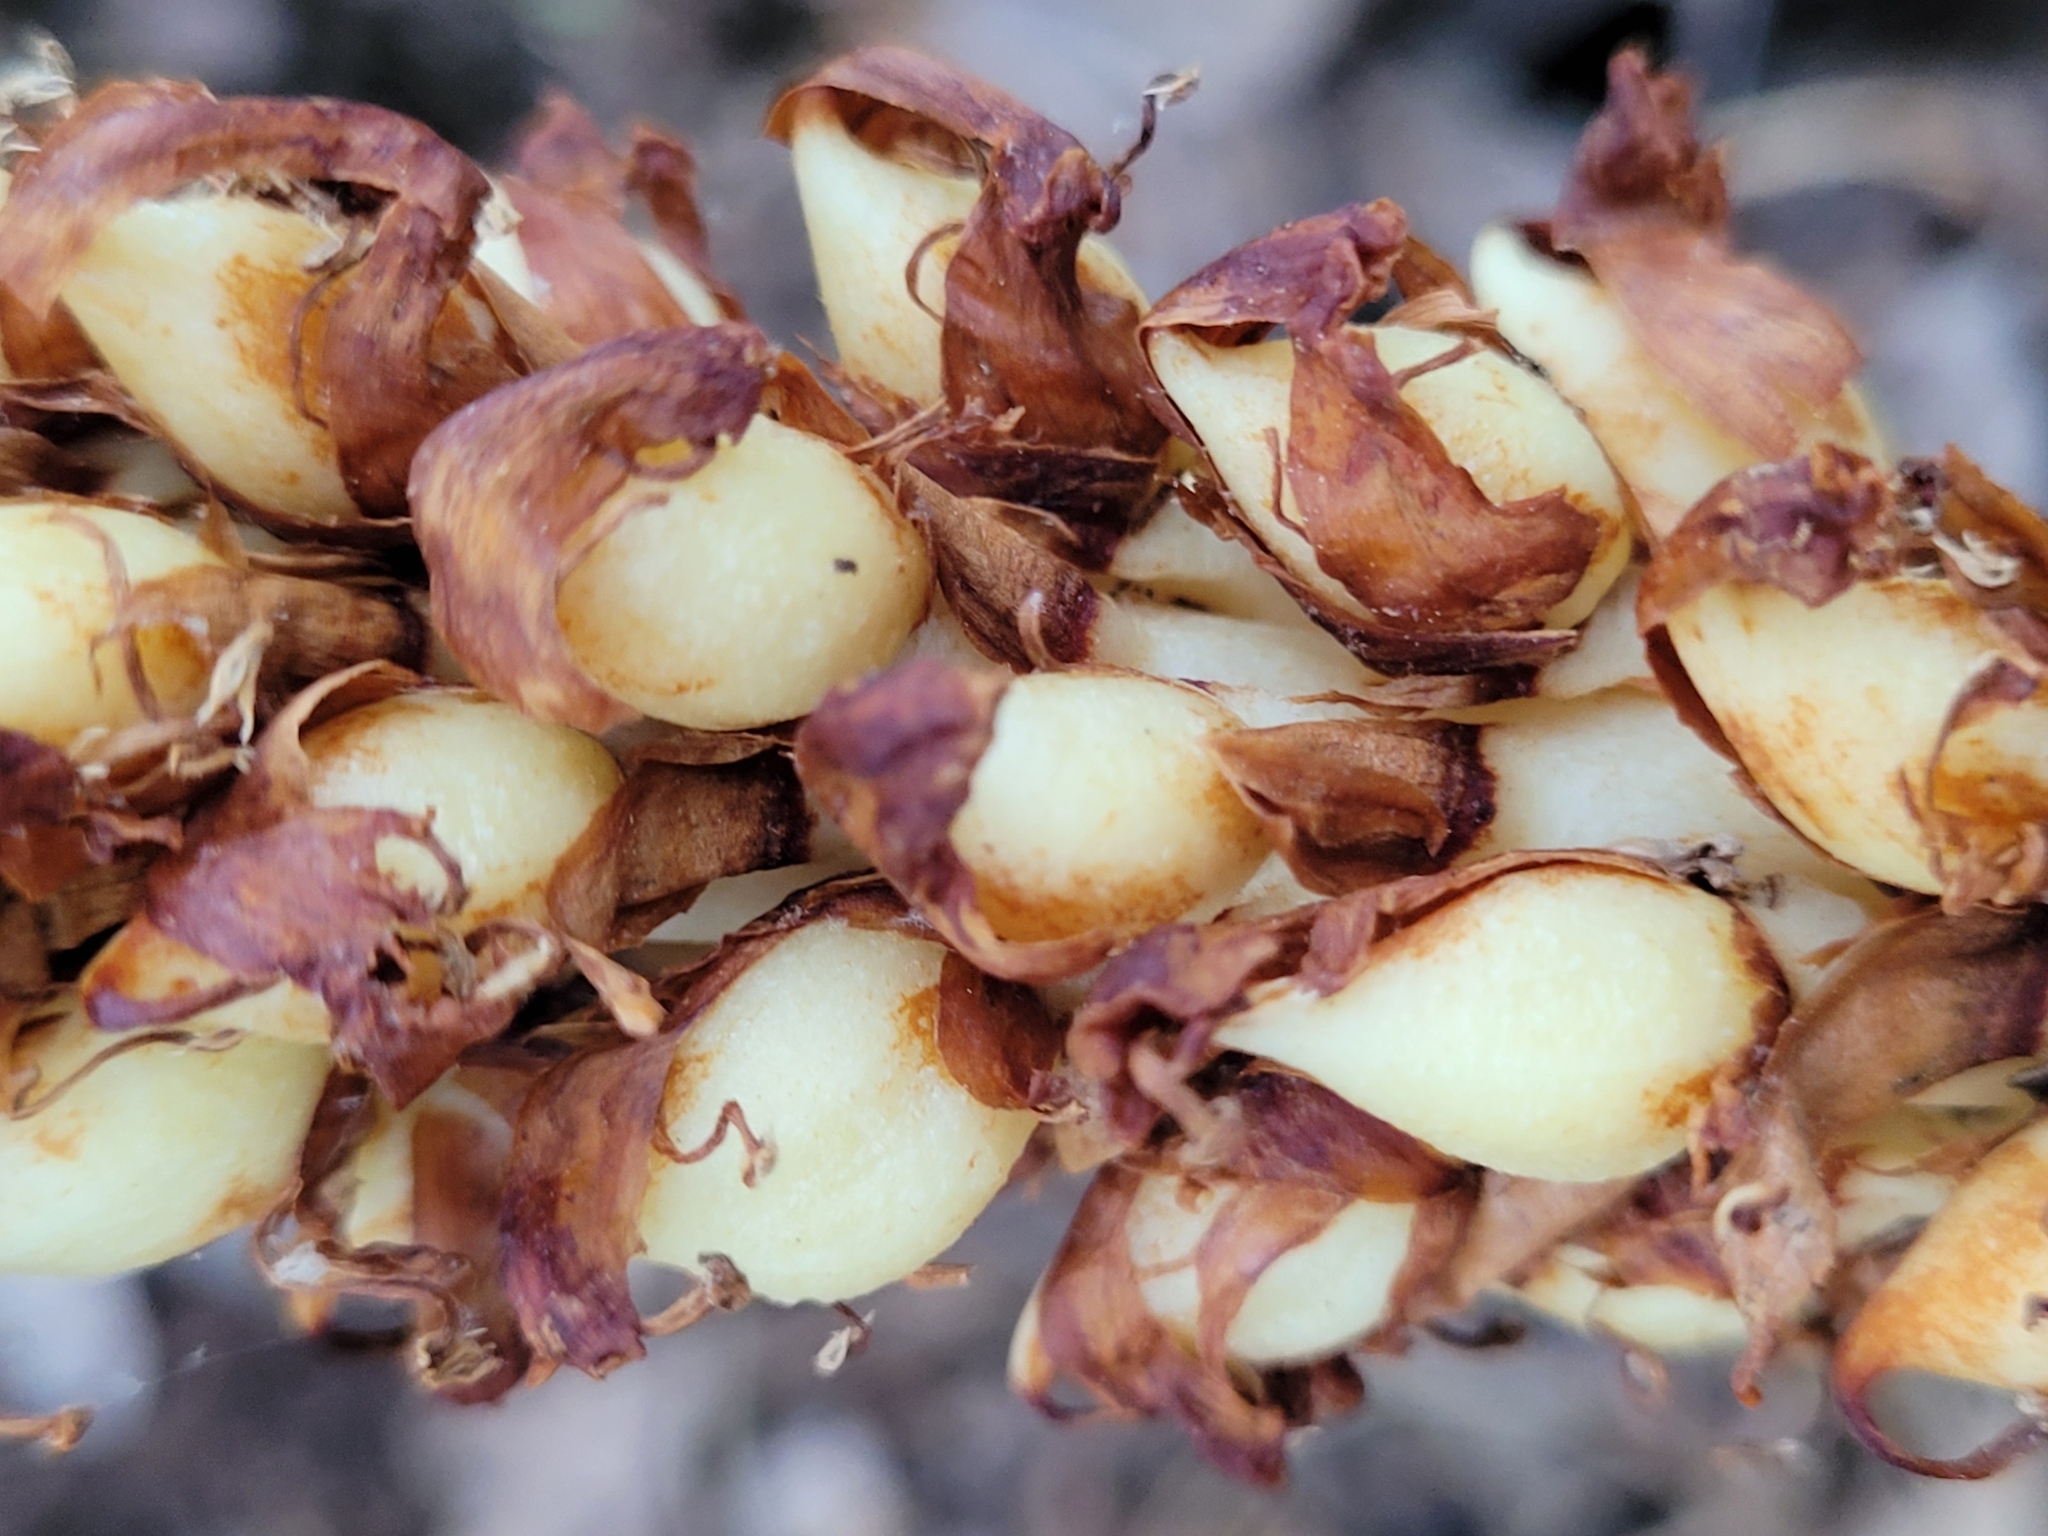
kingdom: Plantae
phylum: Tracheophyta
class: Magnoliopsida
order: Lamiales
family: Orobanchaceae
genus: Conopholis
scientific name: Conopholis americana
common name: American cancer-root
